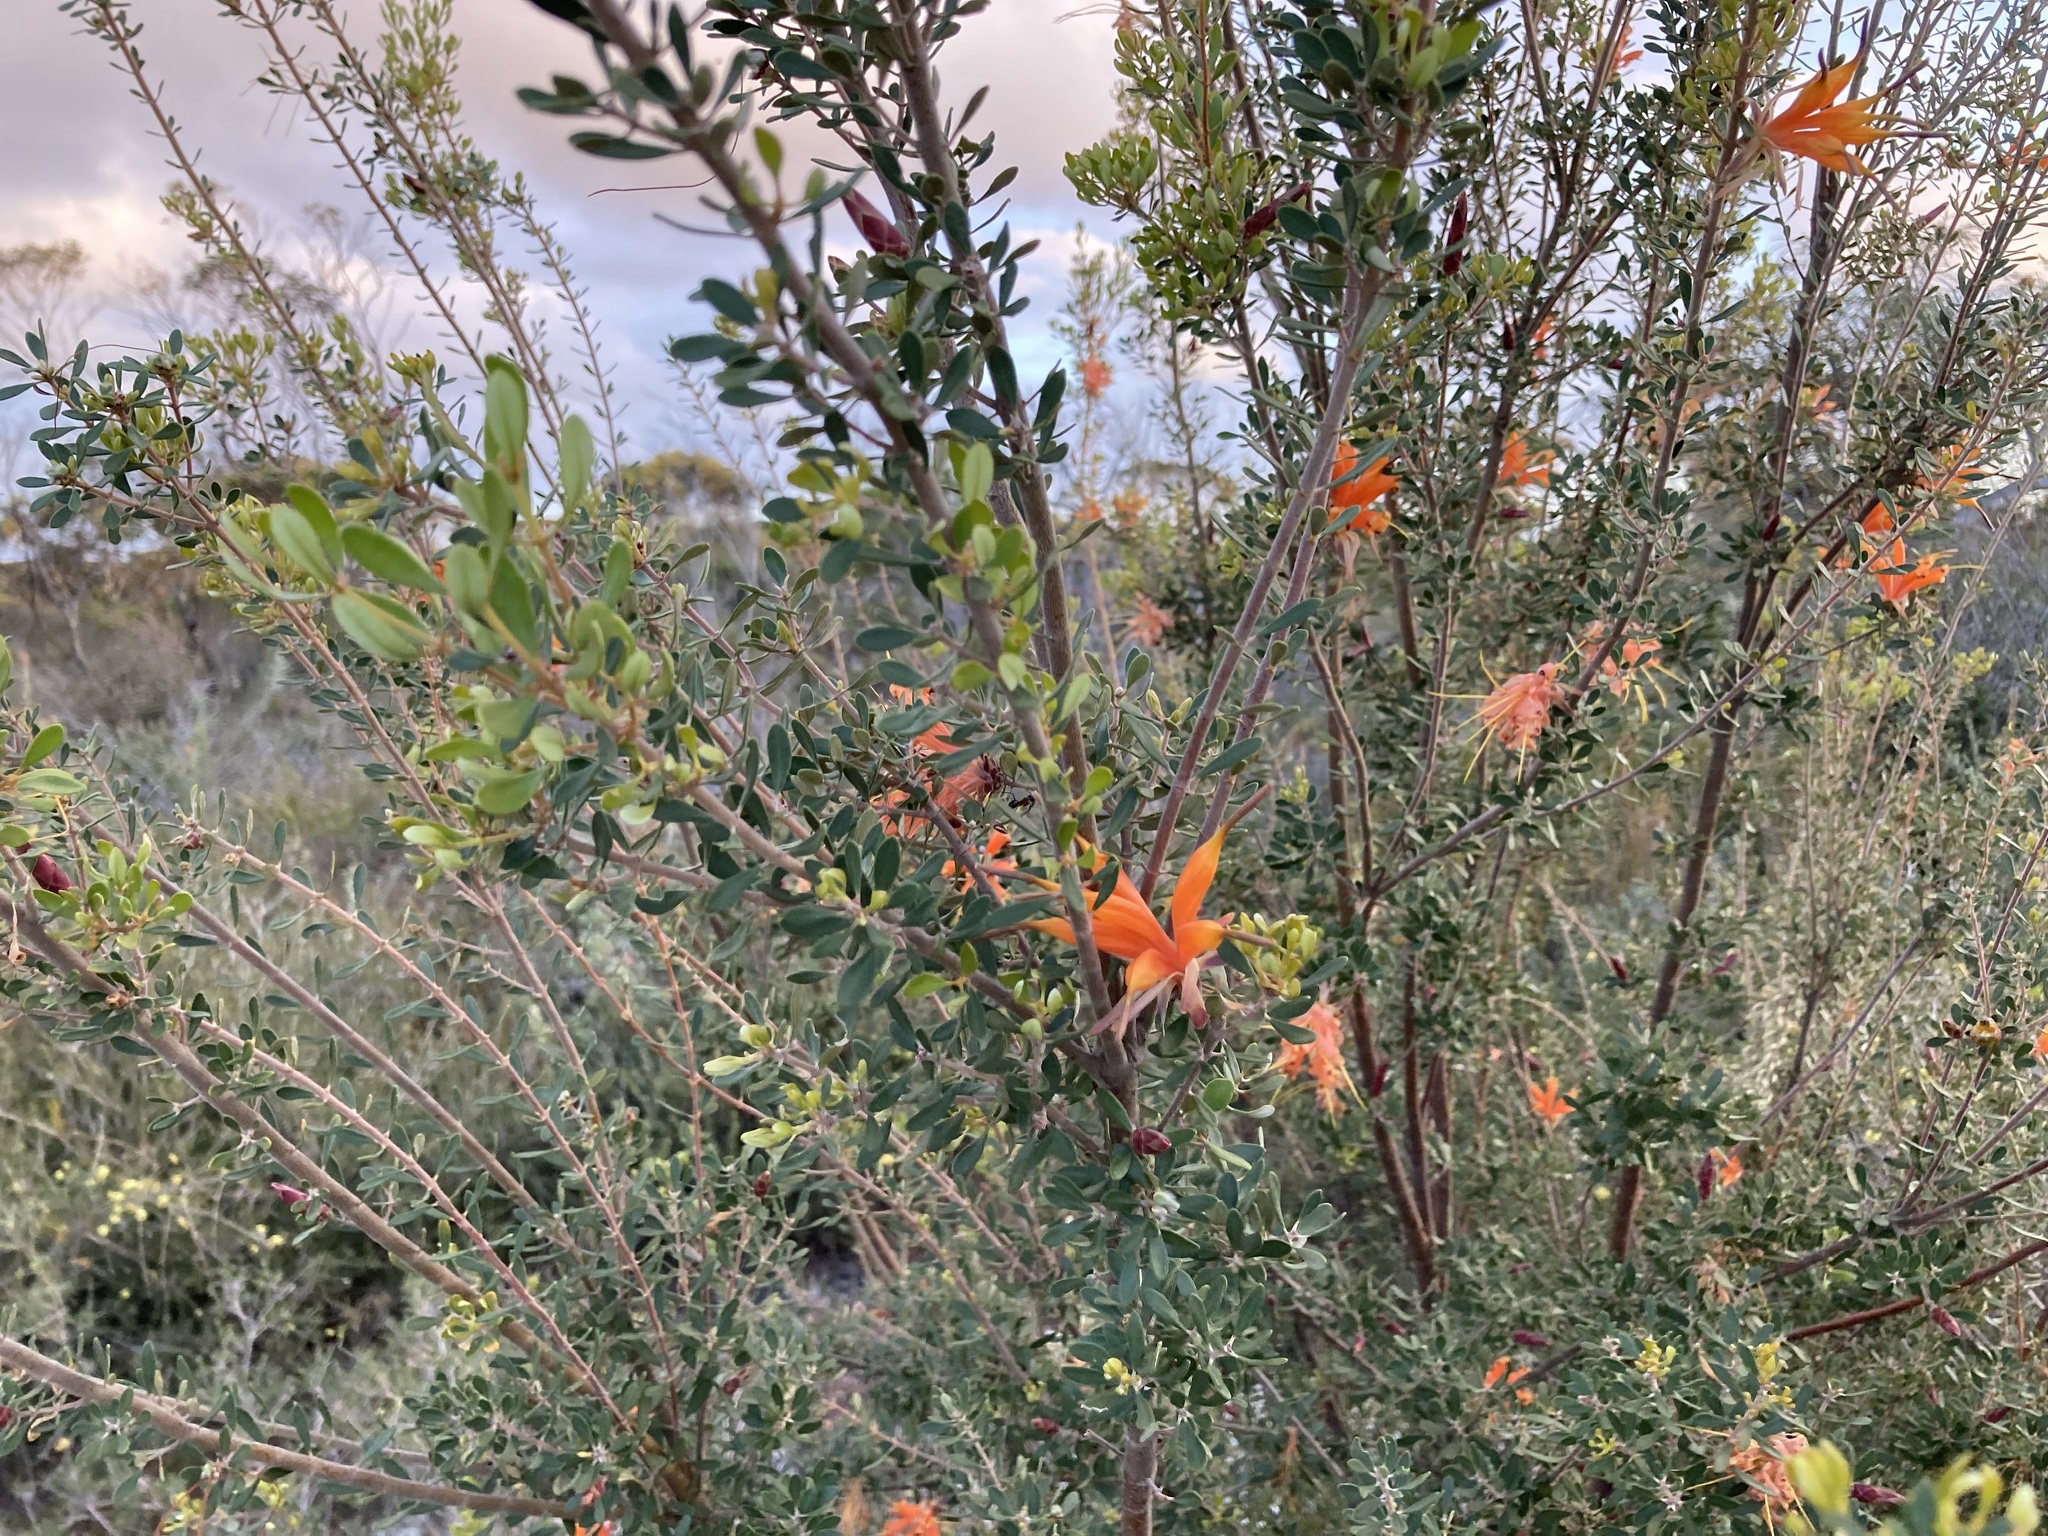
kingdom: Plantae
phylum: Tracheophyta
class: Magnoliopsida
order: Proteales
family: Proteaceae
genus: Lambertia
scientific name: Lambertia inermis
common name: Chittick
